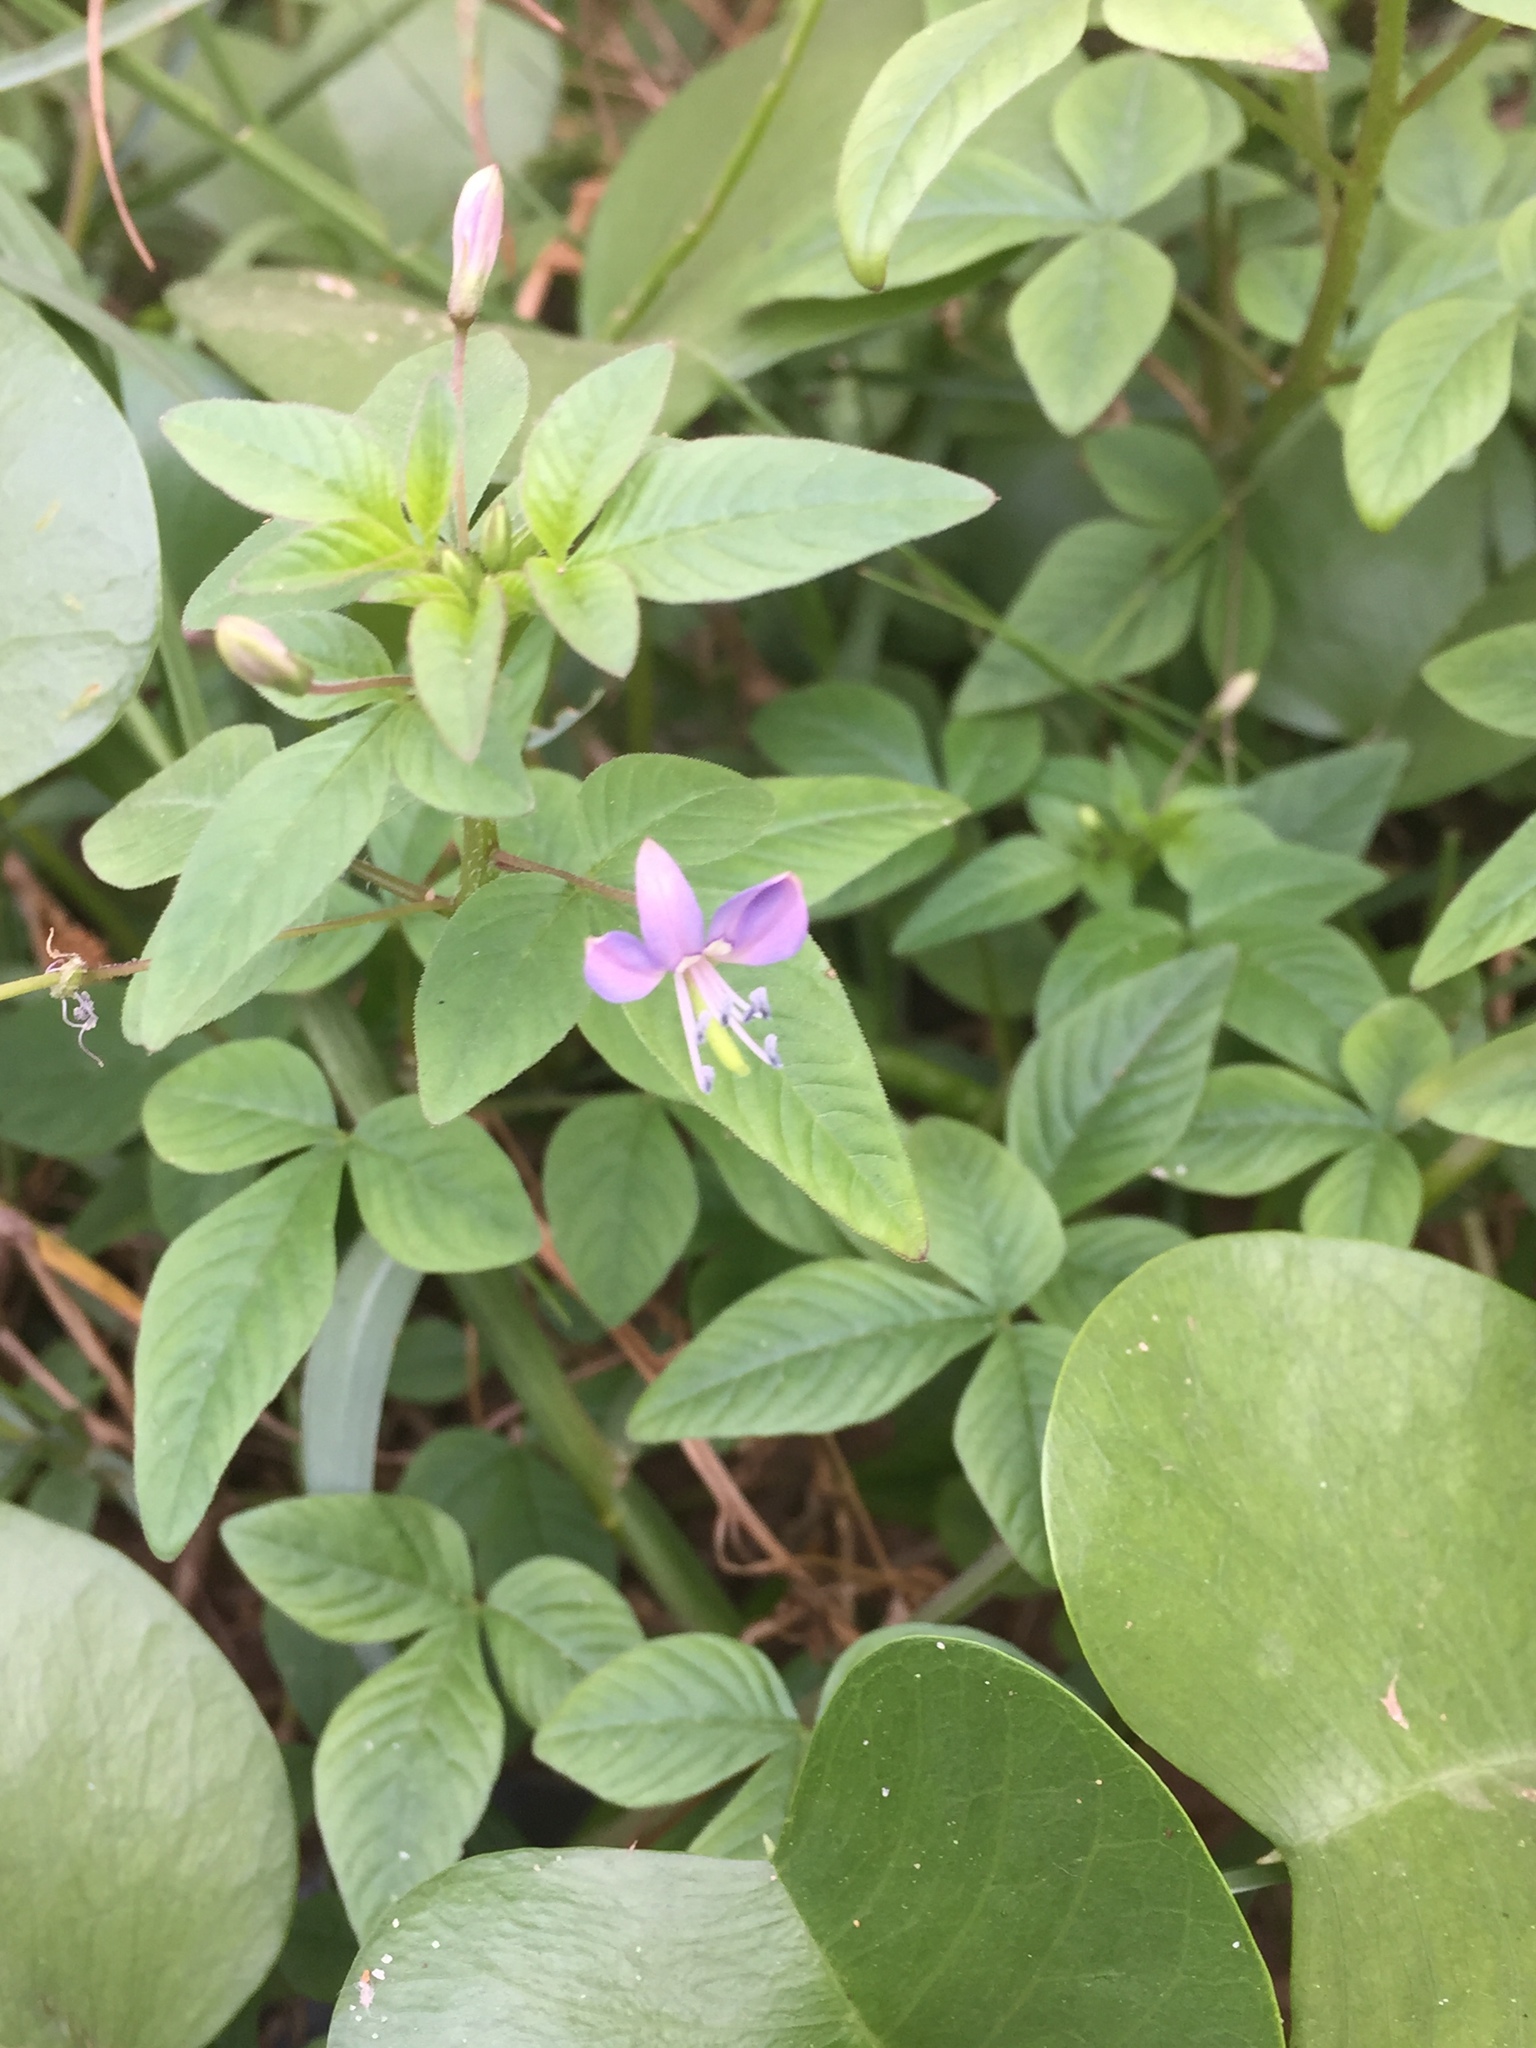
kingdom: Plantae
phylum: Tracheophyta
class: Magnoliopsida
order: Brassicales
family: Cleomaceae
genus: Sieruela
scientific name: Sieruela rutidosperma
